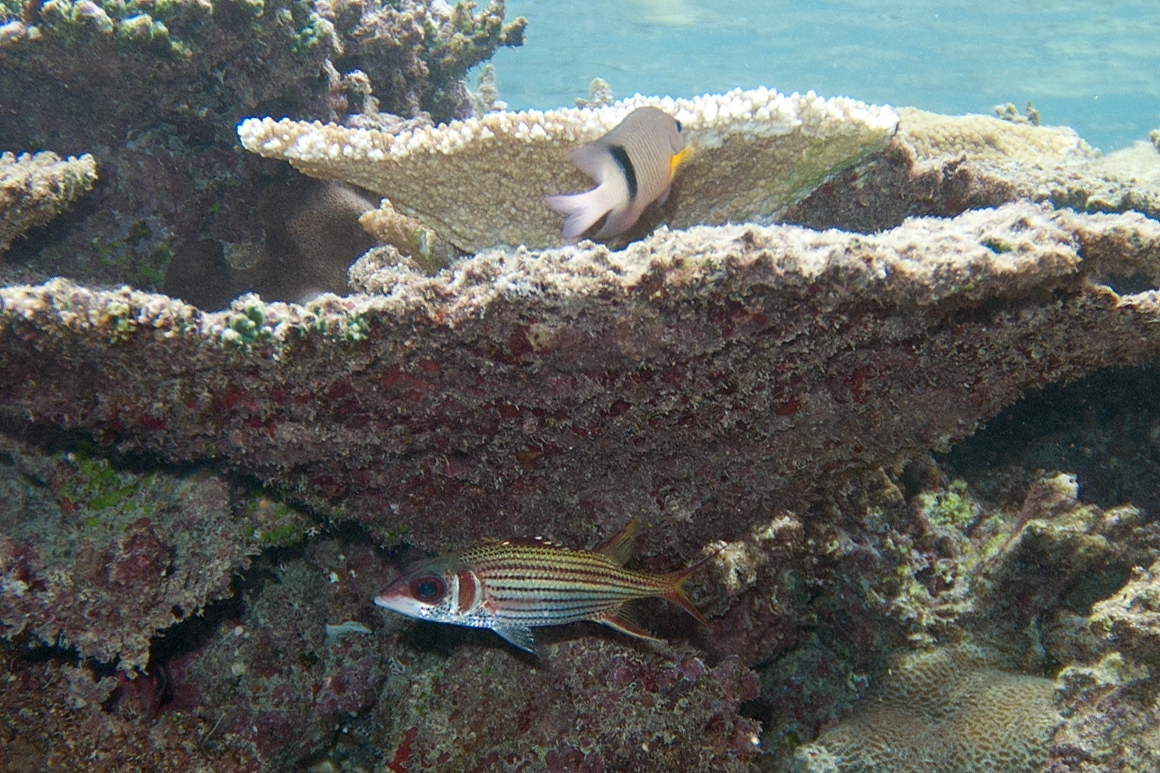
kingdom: Animalia
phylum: Chordata
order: Perciformes
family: Pomacentridae
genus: Plectroglyphidodon
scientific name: Plectroglyphidodon dickii
